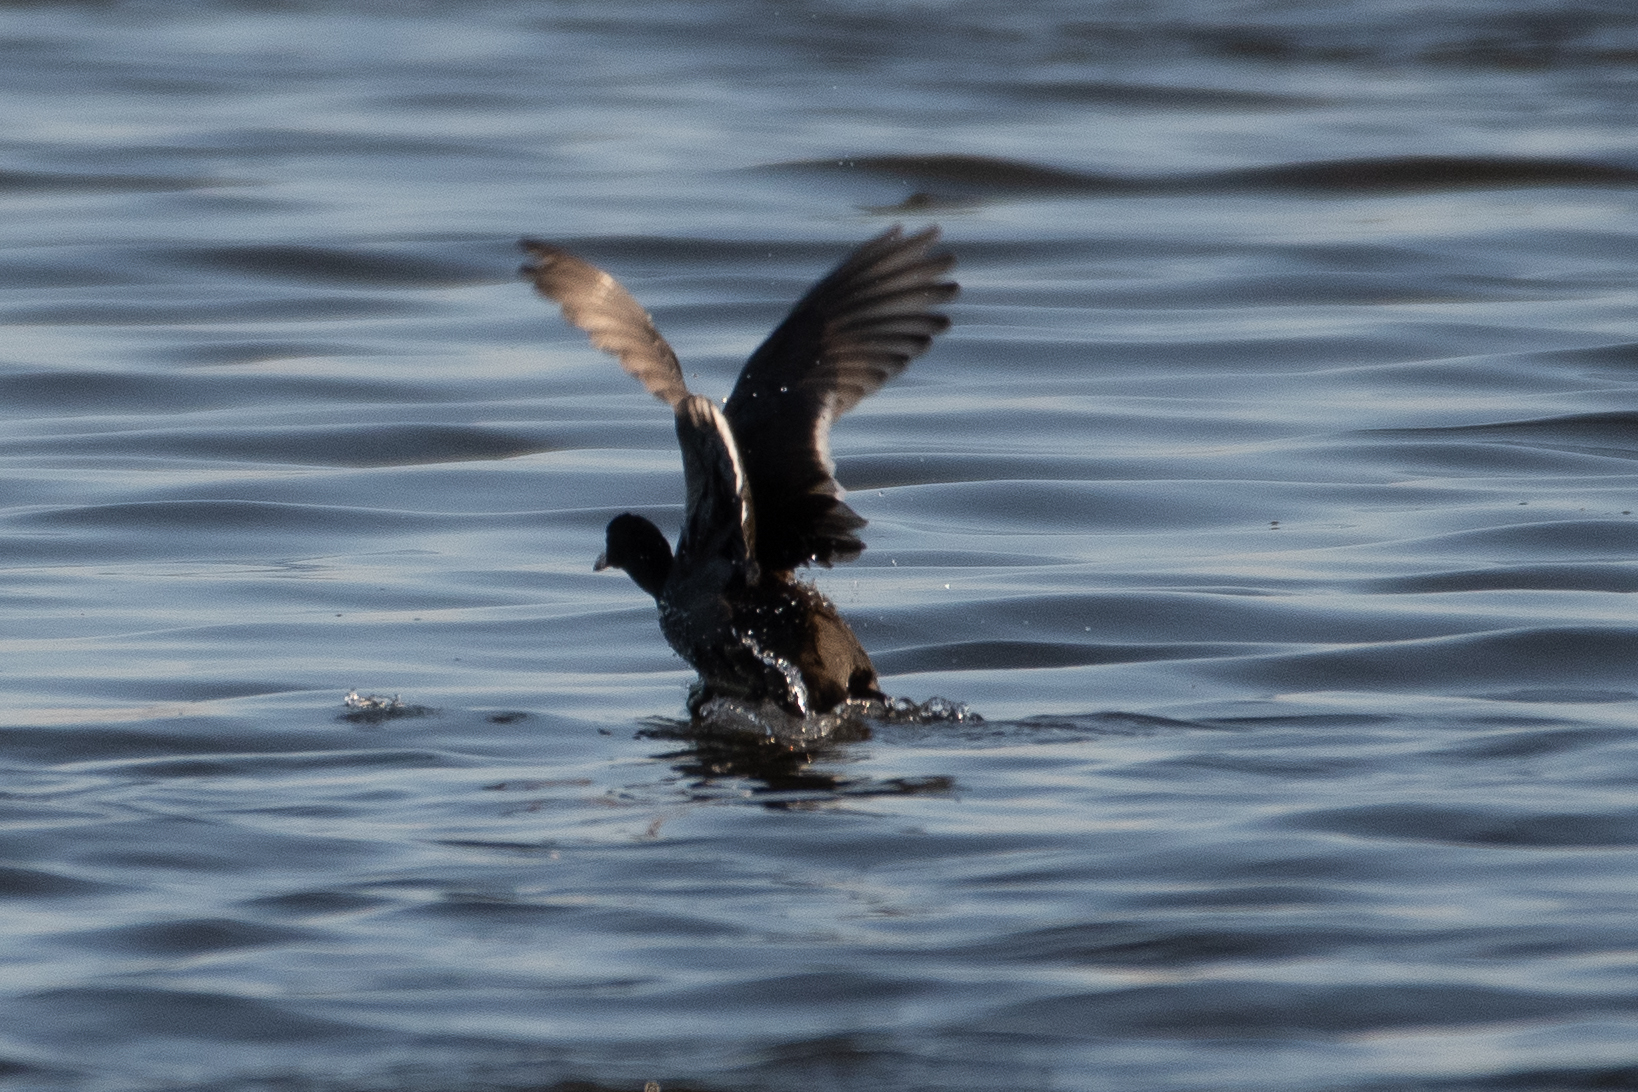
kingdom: Animalia
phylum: Chordata
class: Aves
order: Gruiformes
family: Rallidae
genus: Fulica
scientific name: Fulica americana
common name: American coot
